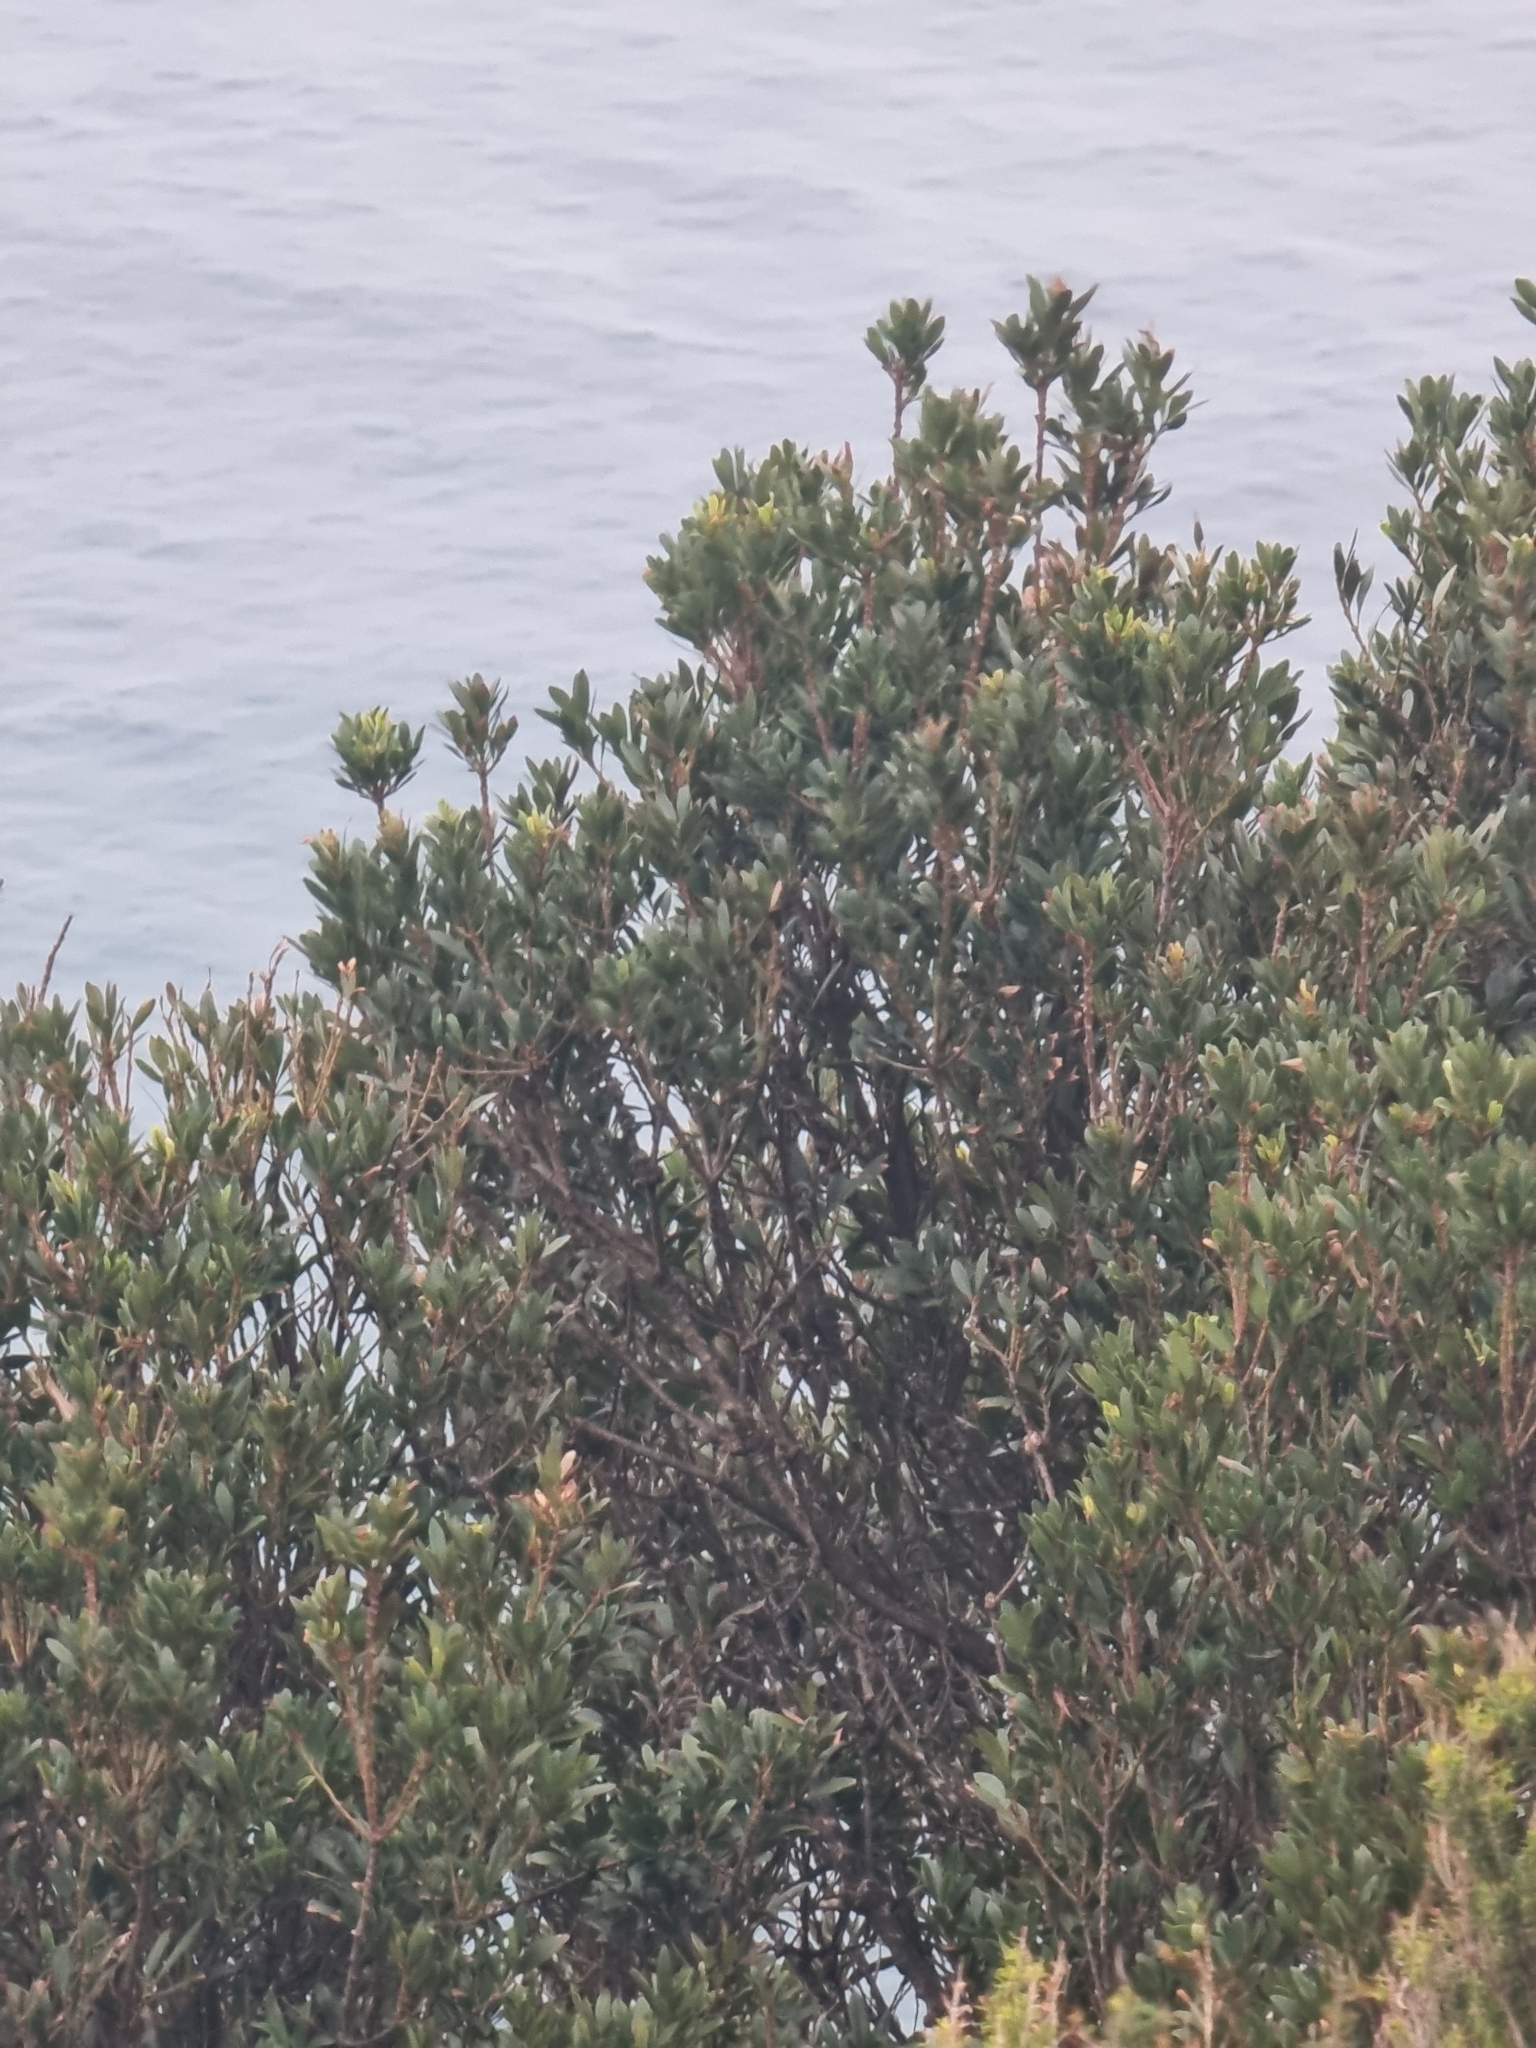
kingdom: Plantae
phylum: Tracheophyta
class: Magnoliopsida
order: Fagales
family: Myricaceae
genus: Morella
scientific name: Morella faya
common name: Firetree
